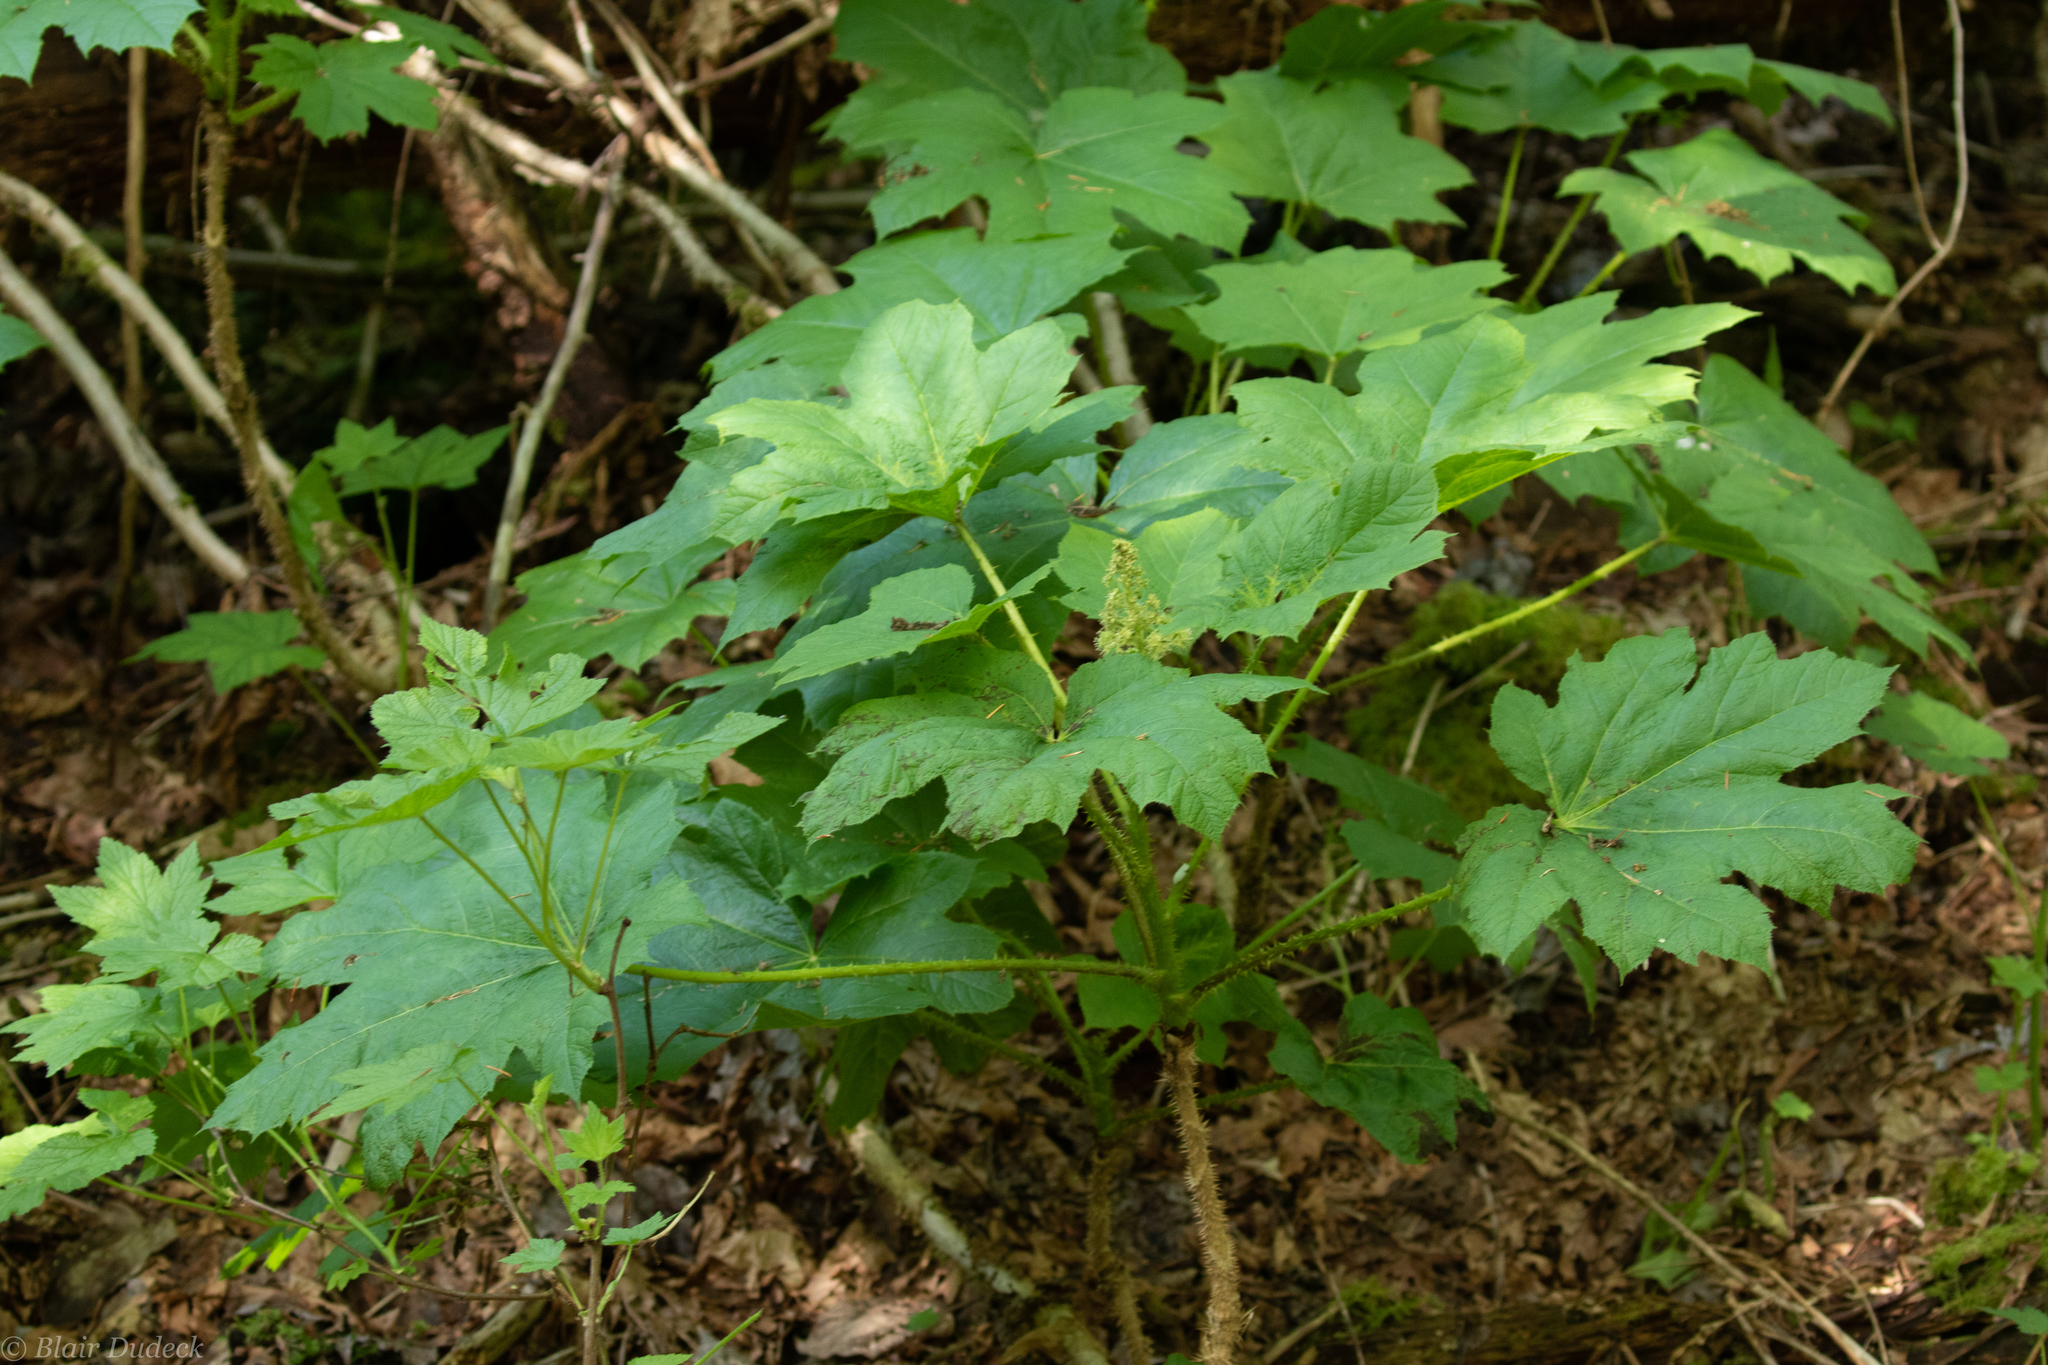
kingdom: Plantae
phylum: Tracheophyta
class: Magnoliopsida
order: Apiales
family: Araliaceae
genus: Oplopanax
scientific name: Oplopanax horridus
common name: Devil's walking-stick
